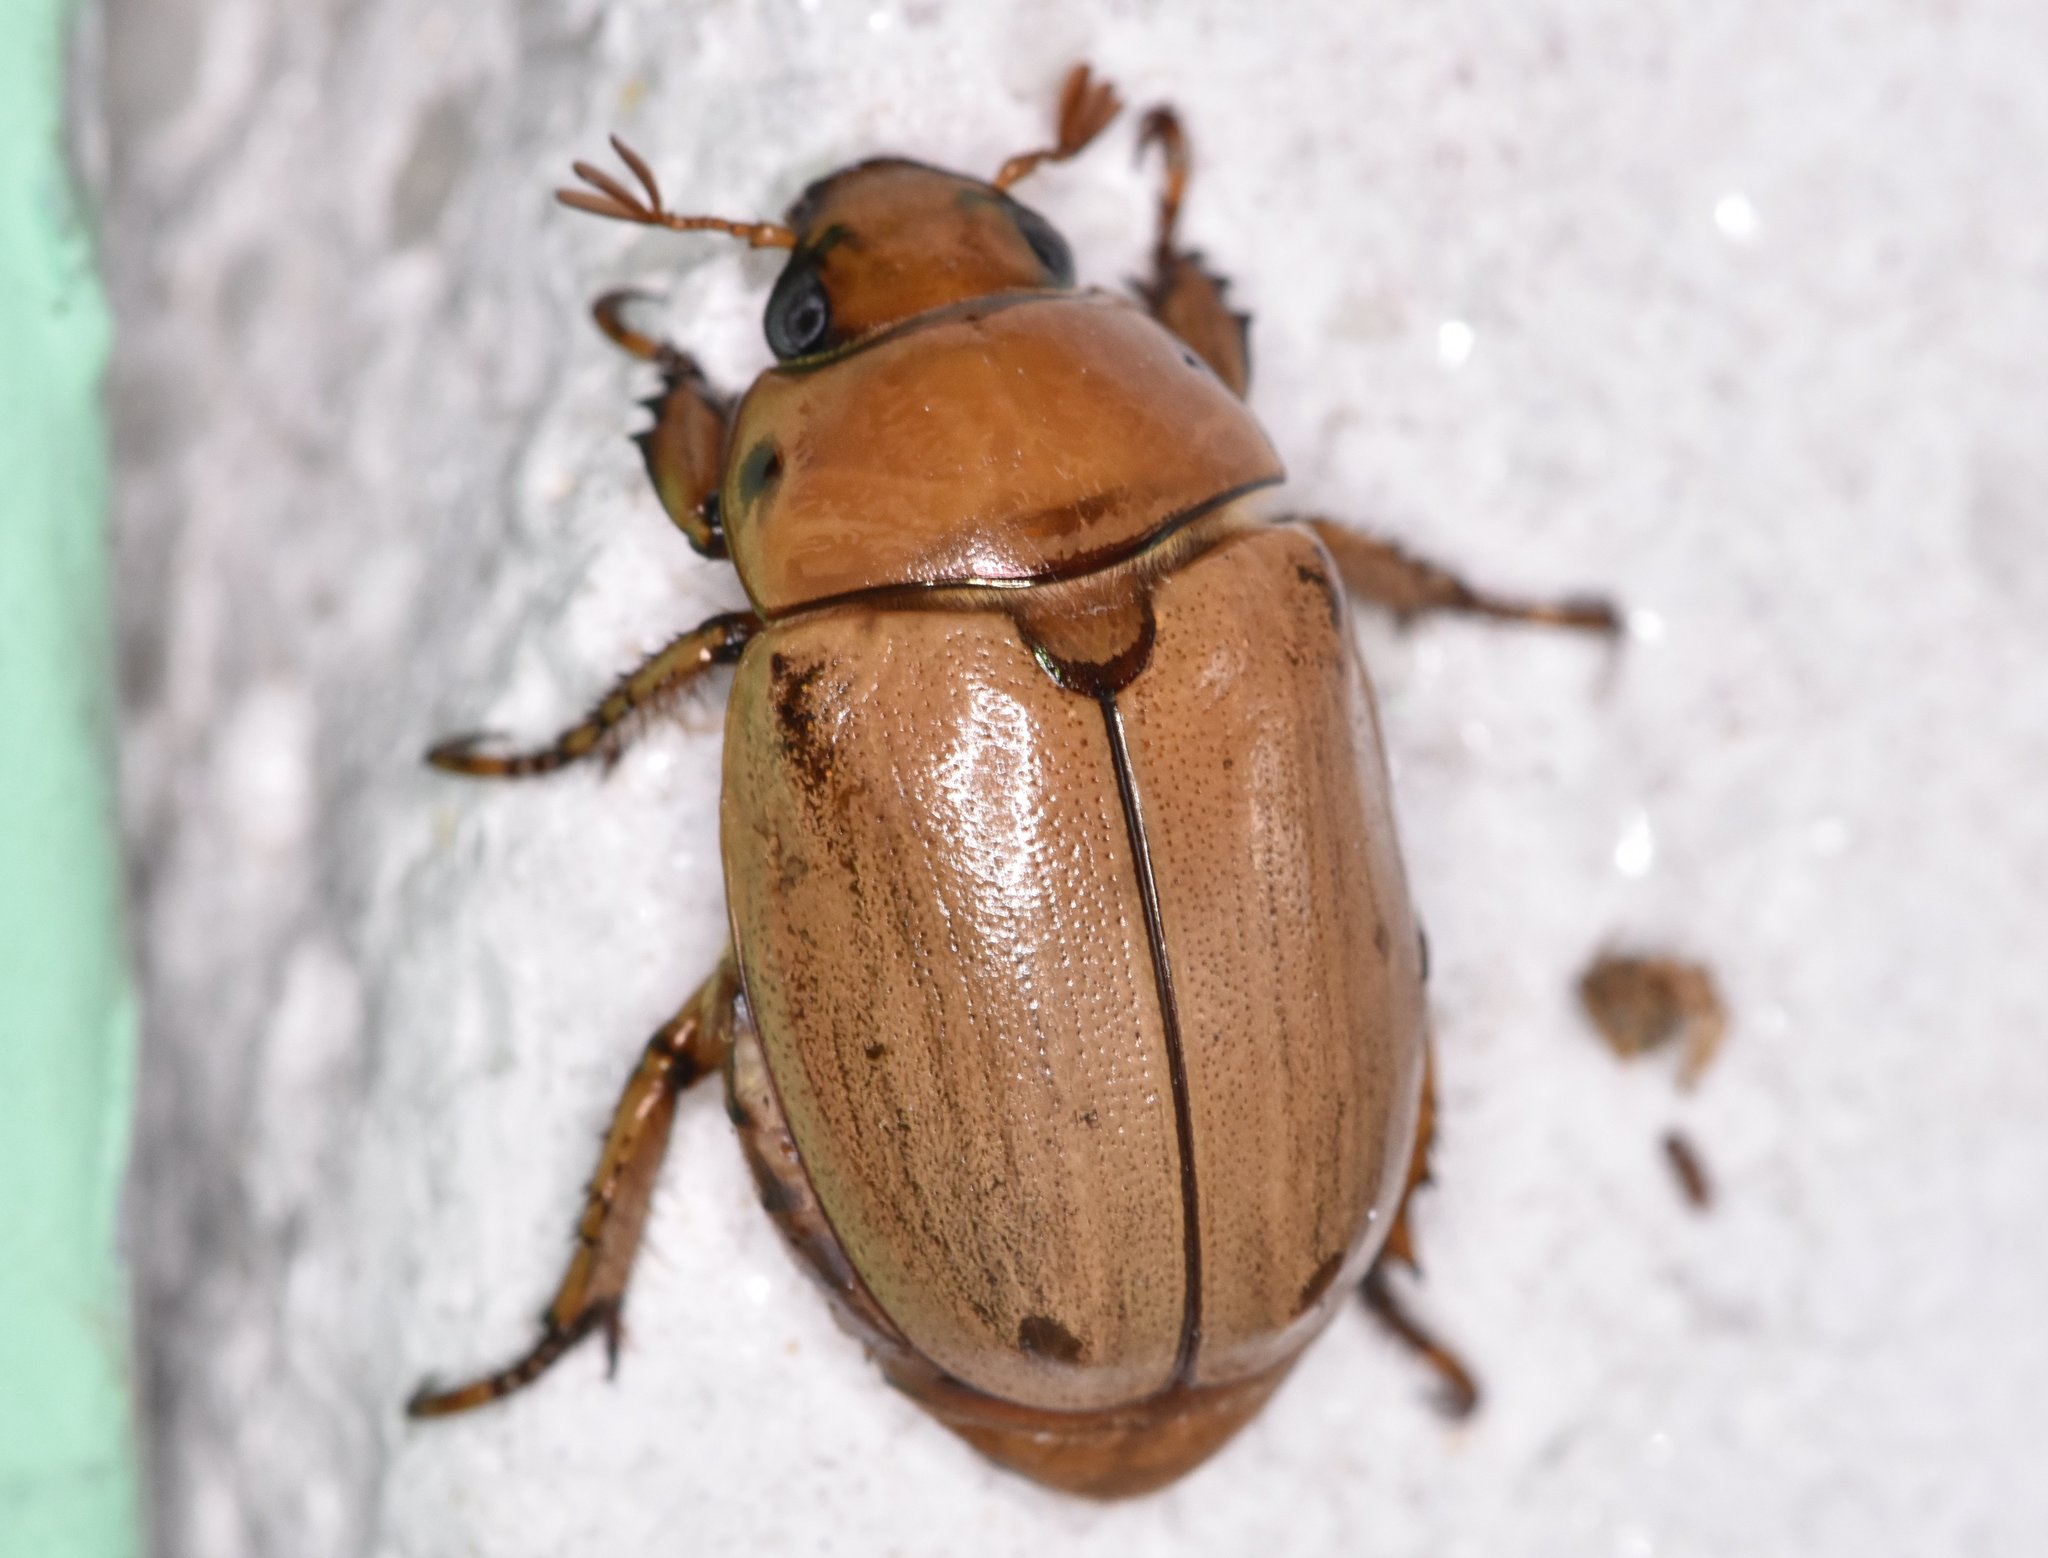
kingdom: Animalia
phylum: Arthropoda
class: Insecta
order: Coleoptera
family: Scarabaeidae
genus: Pelidnota
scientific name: Pelidnota punctata
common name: Grapevine beetle
